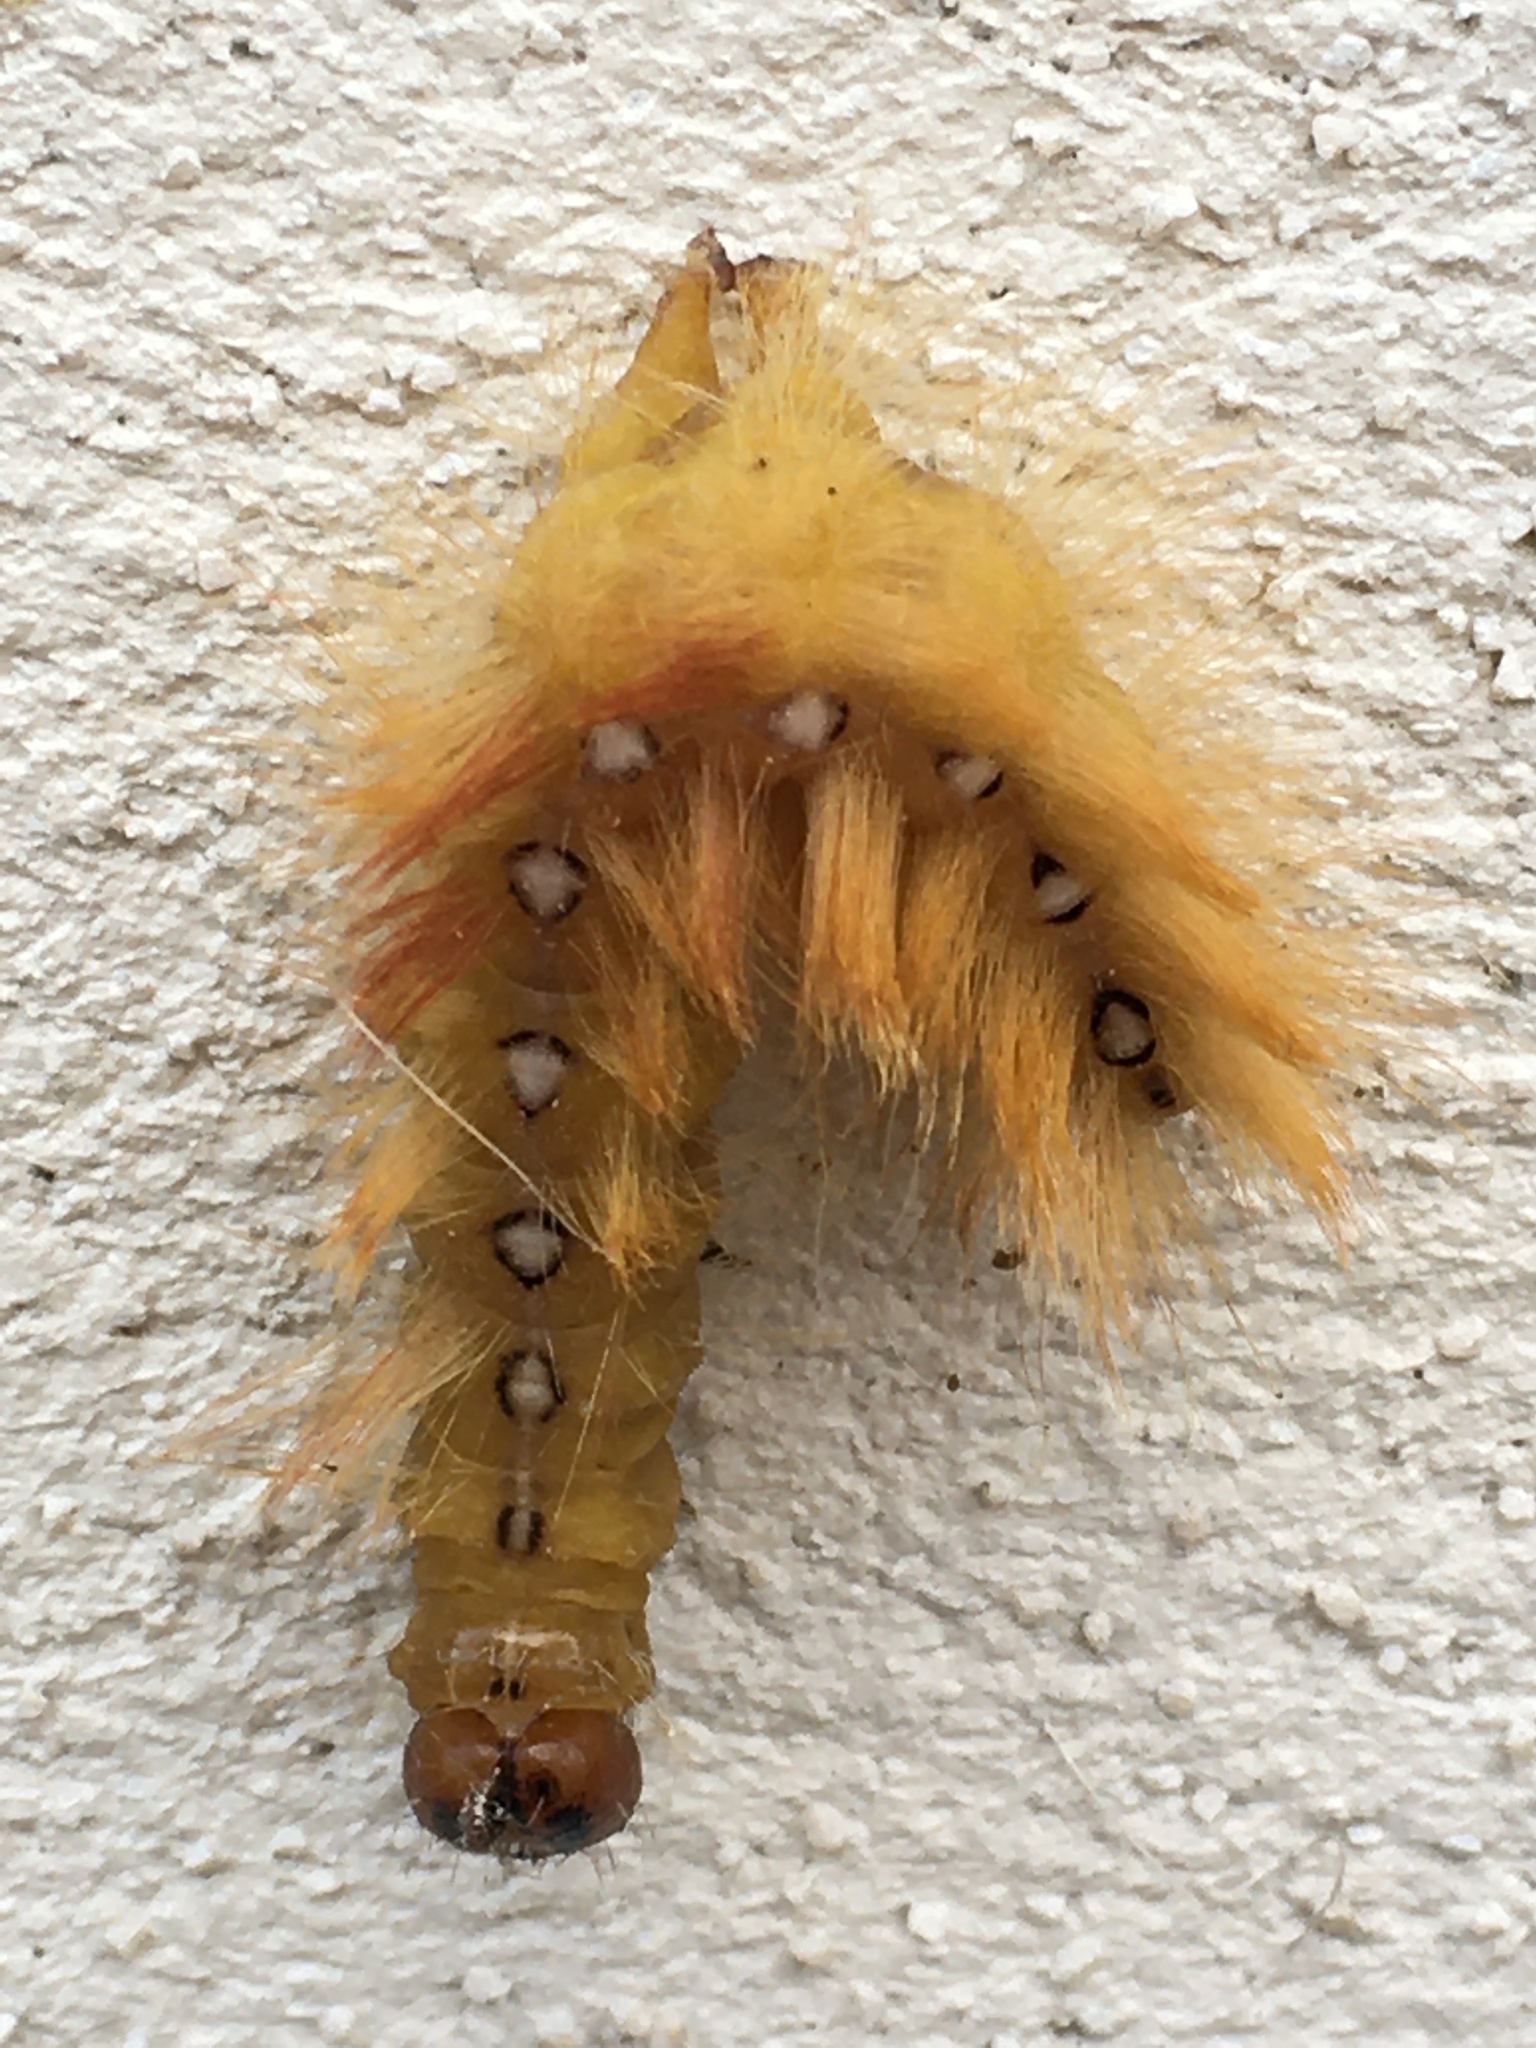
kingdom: Animalia
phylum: Arthropoda
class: Insecta
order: Lepidoptera
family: Noctuidae
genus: Acronicta
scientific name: Acronicta aceris
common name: Sycamore
